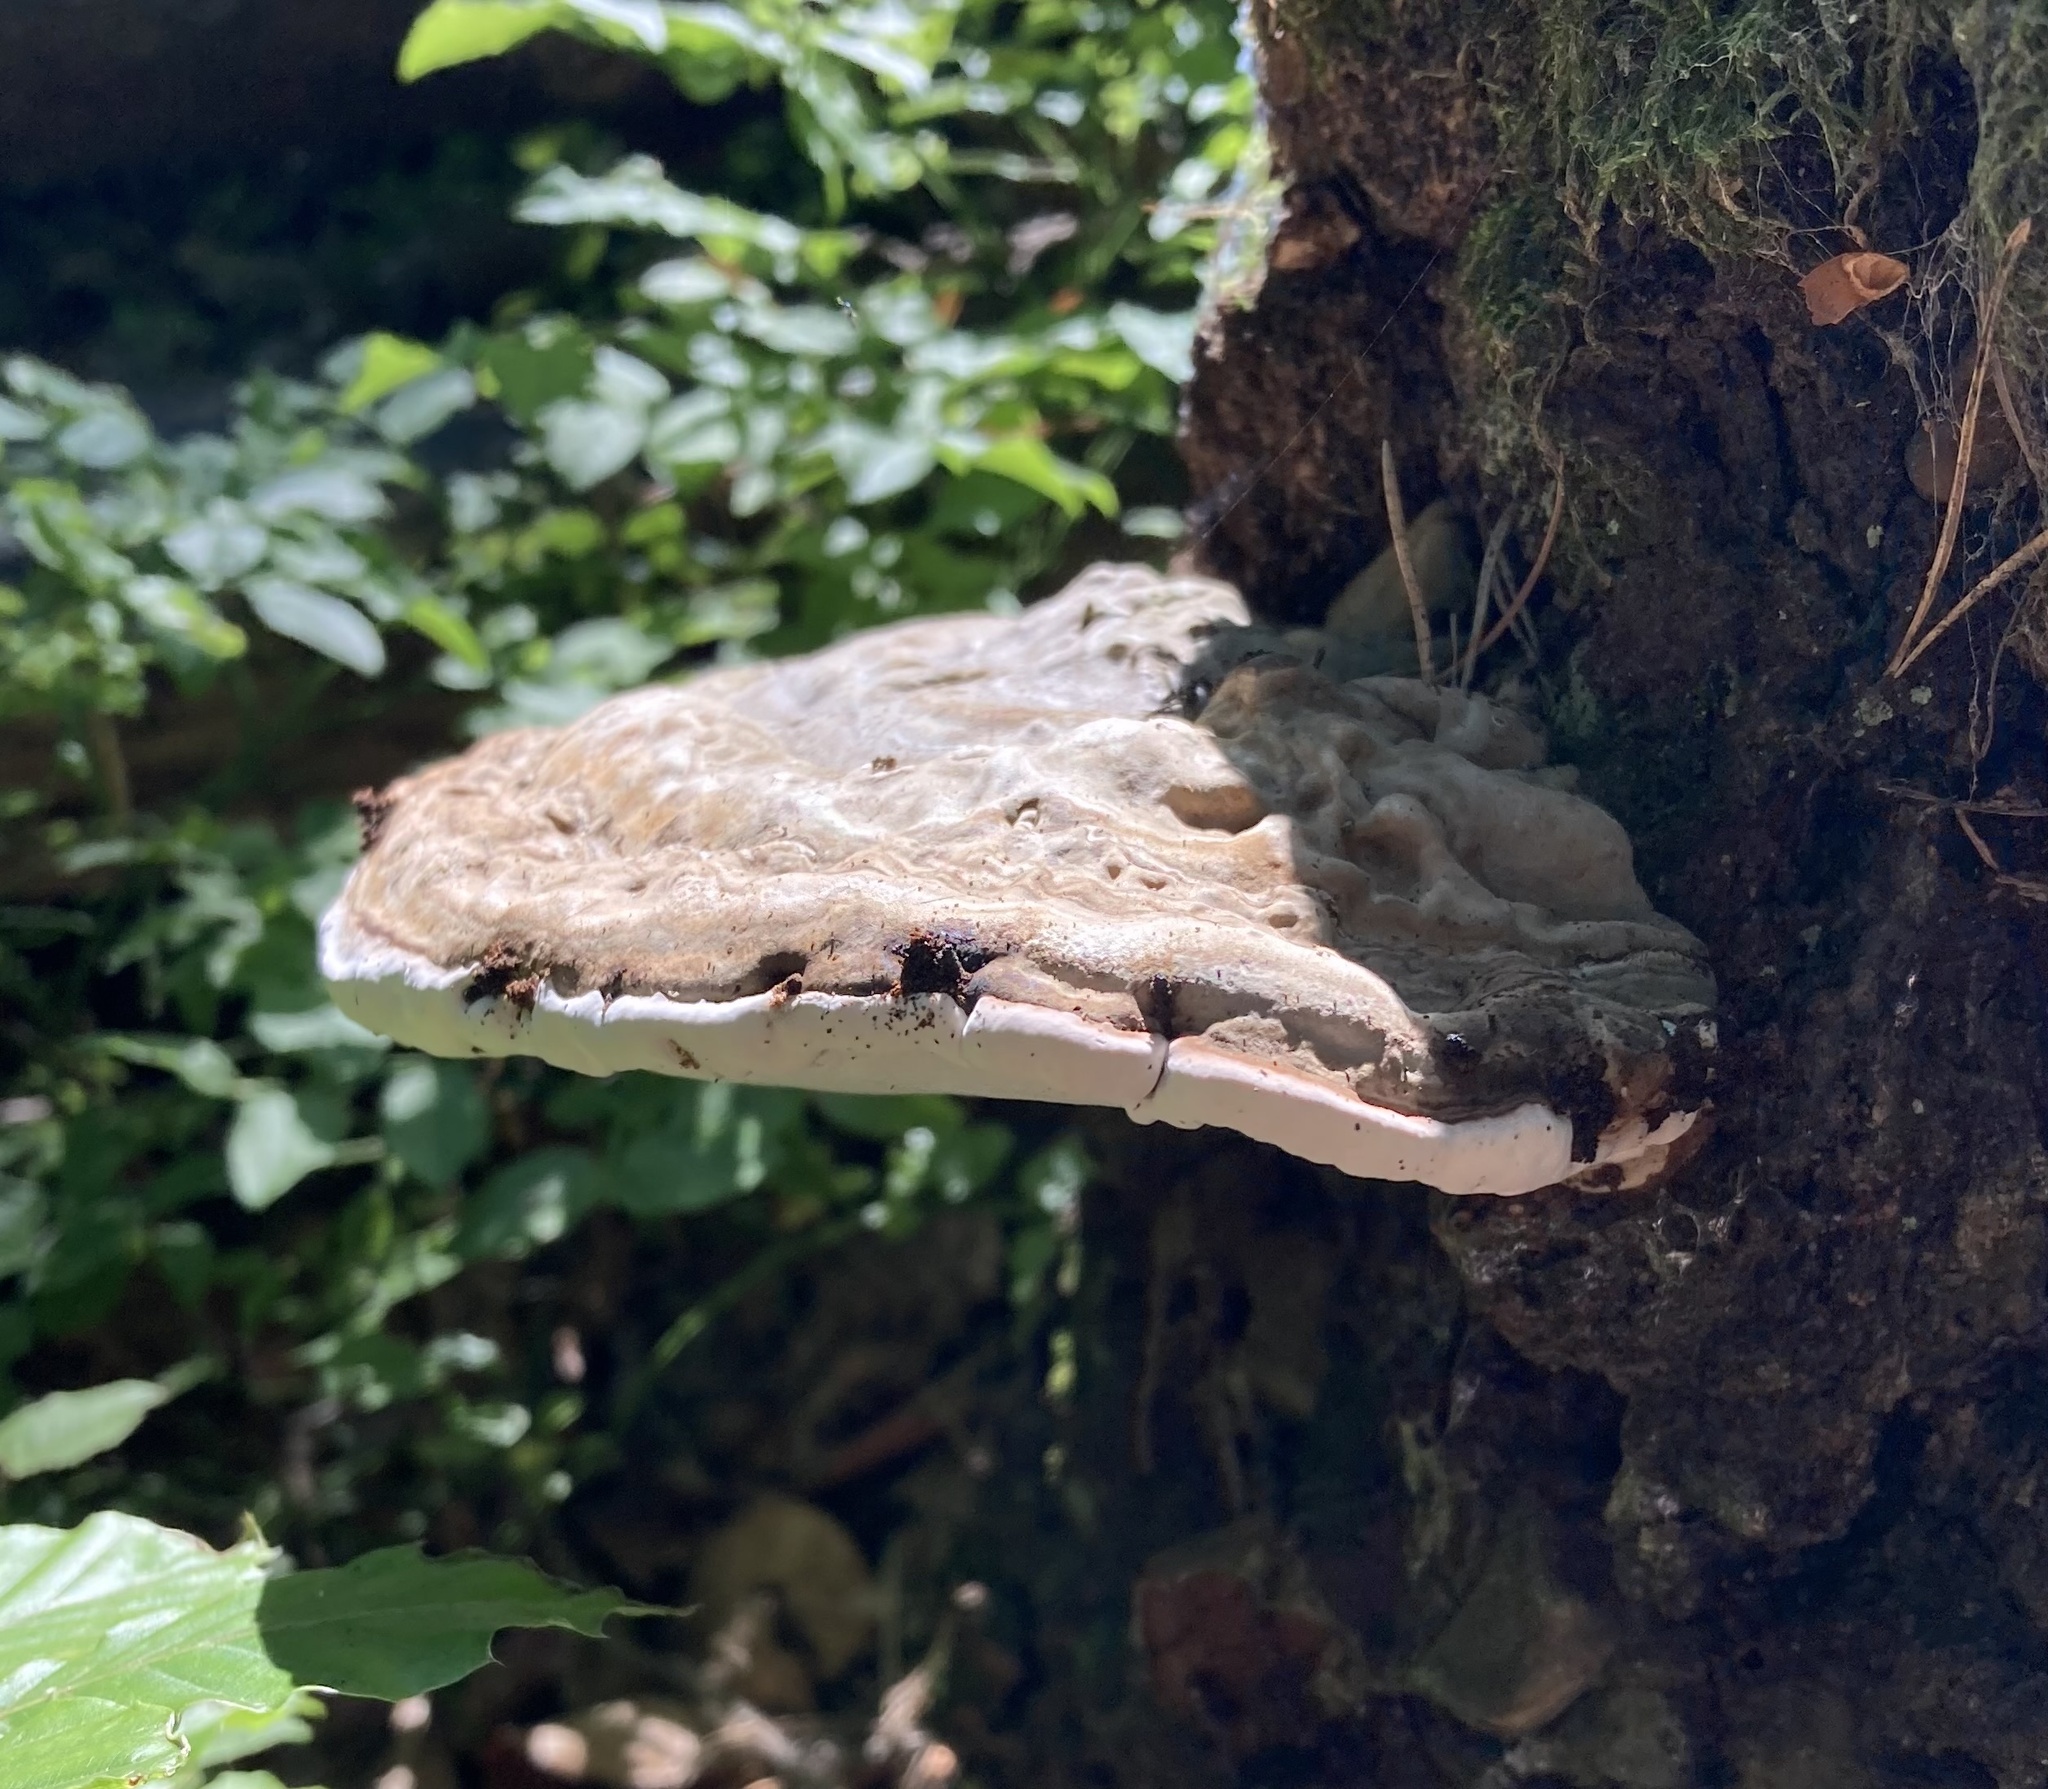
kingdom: Fungi
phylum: Basidiomycota
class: Agaricomycetes
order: Polyporales
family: Polyporaceae
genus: Ganoderma
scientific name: Ganoderma applanatum
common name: Artist's bracket
